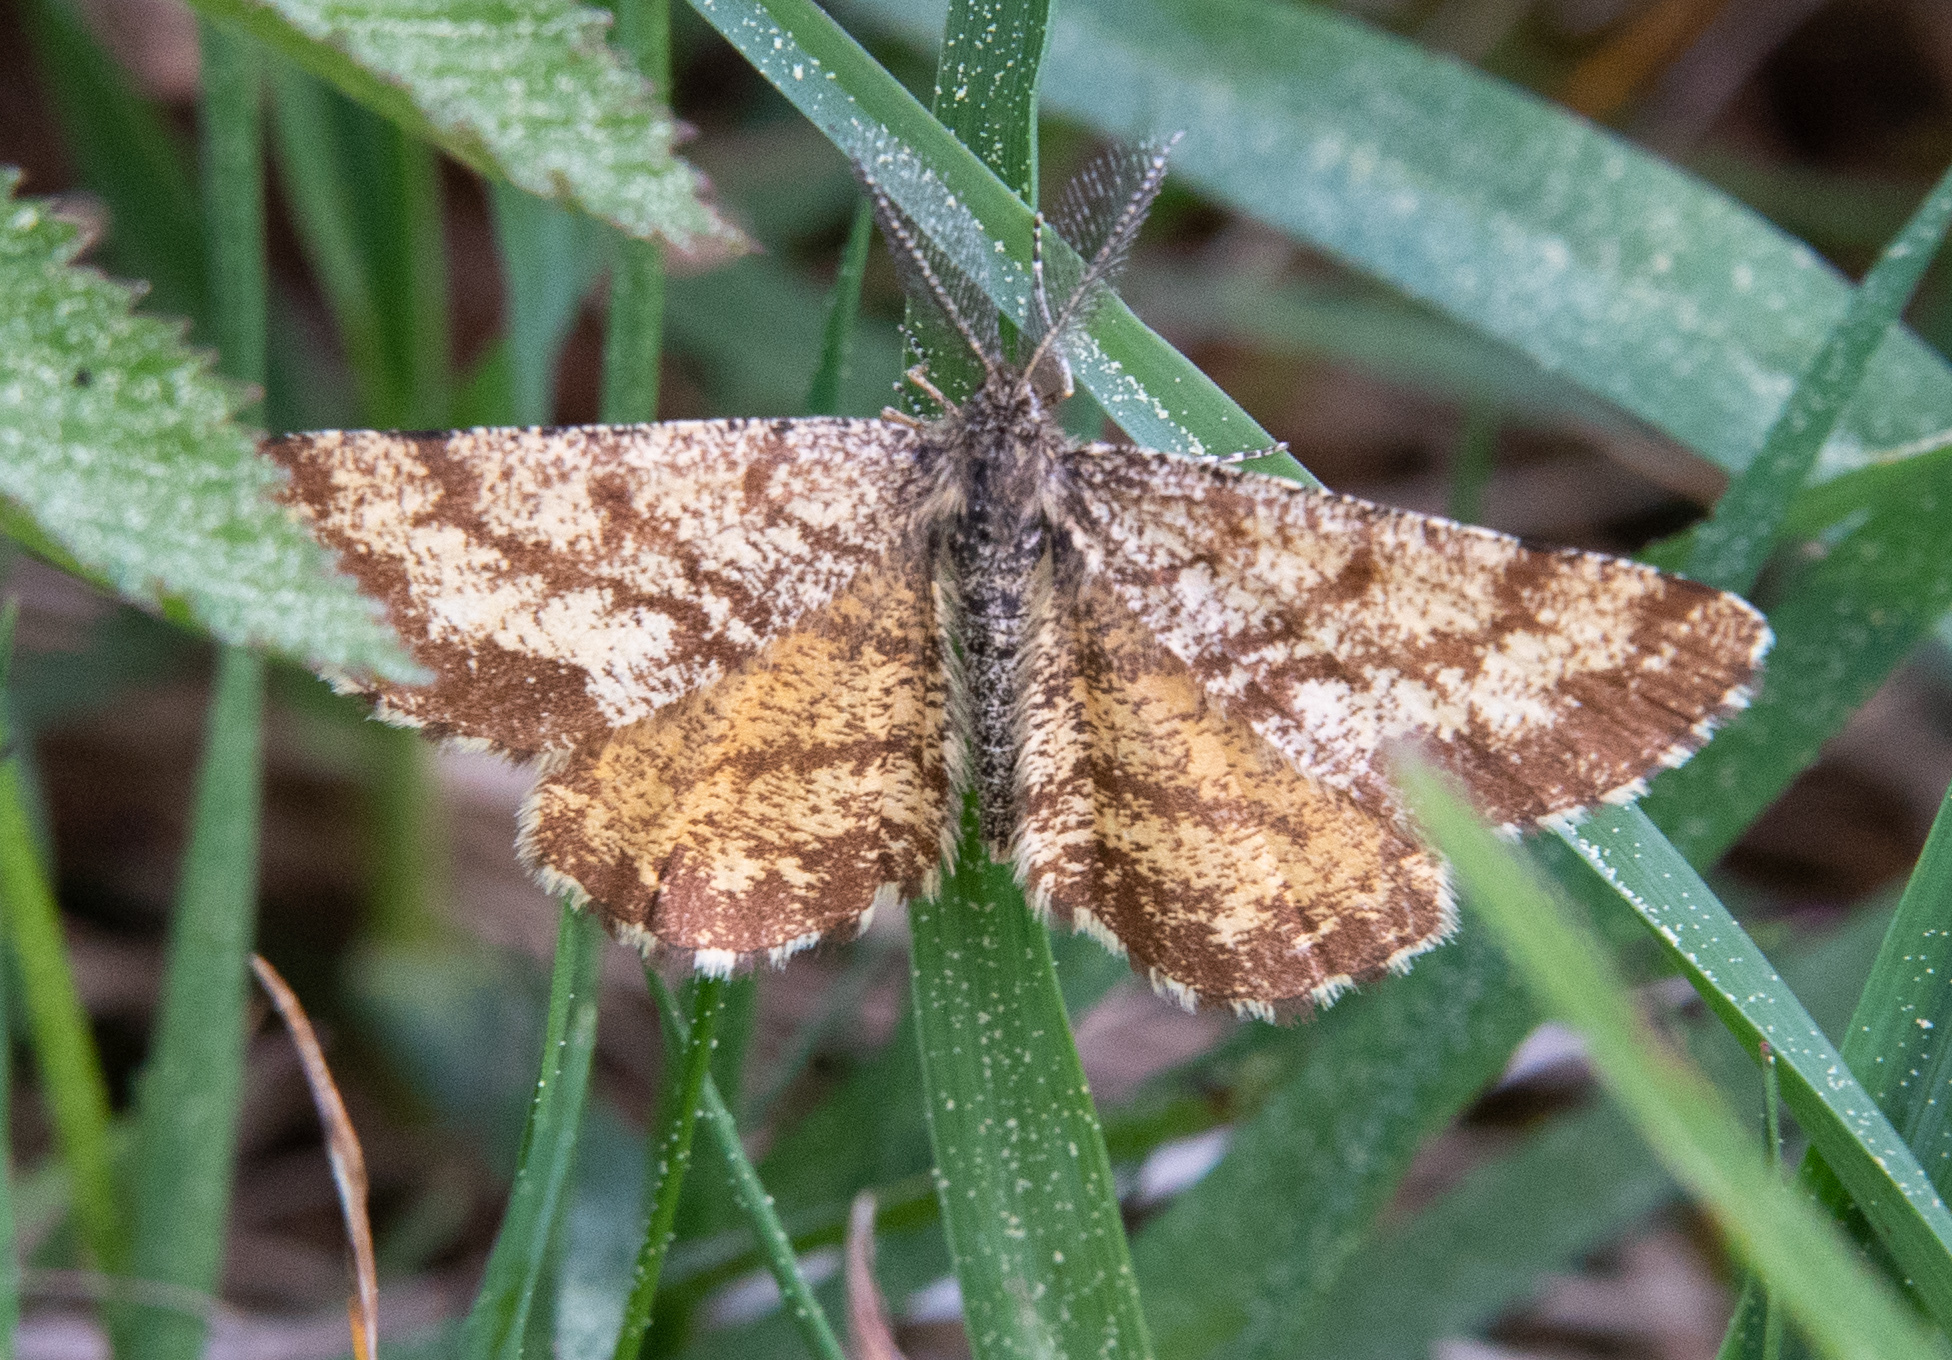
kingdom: Animalia
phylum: Arthropoda
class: Insecta
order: Lepidoptera
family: Geometridae
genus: Ematurga
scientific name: Ematurga atomaria
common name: Common heath
